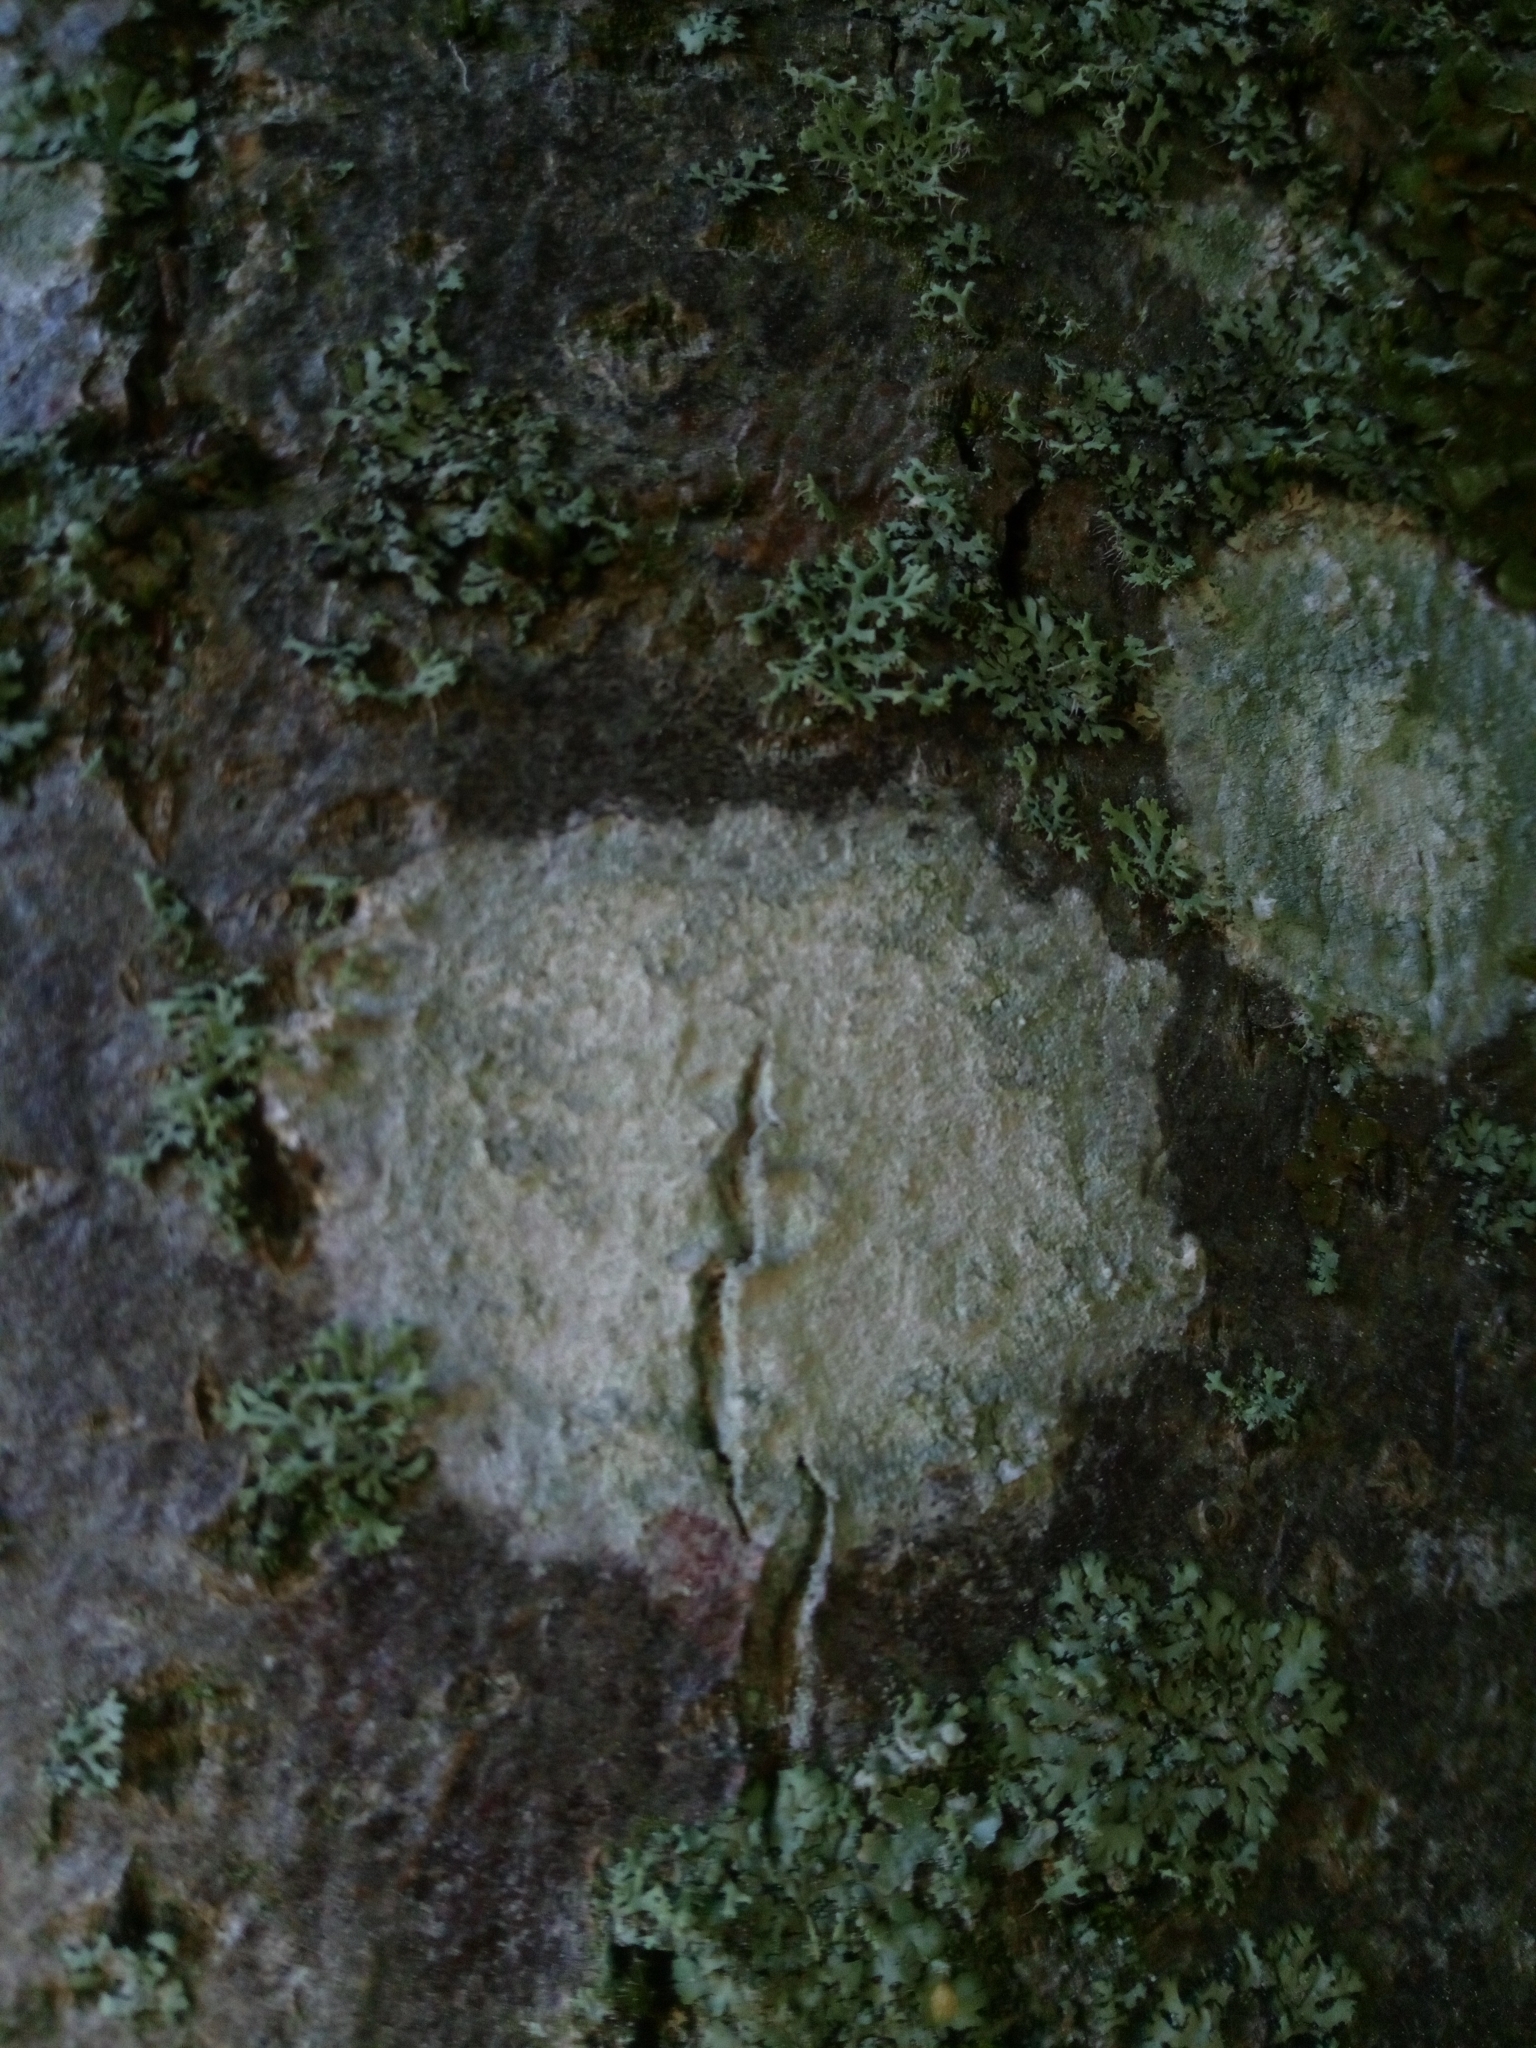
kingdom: Fungi
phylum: Ascomycota
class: Lecanoromycetes
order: Ostropales
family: Phlyctidaceae
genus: Phlyctis
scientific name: Phlyctis argena
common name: Whitewash lichen
